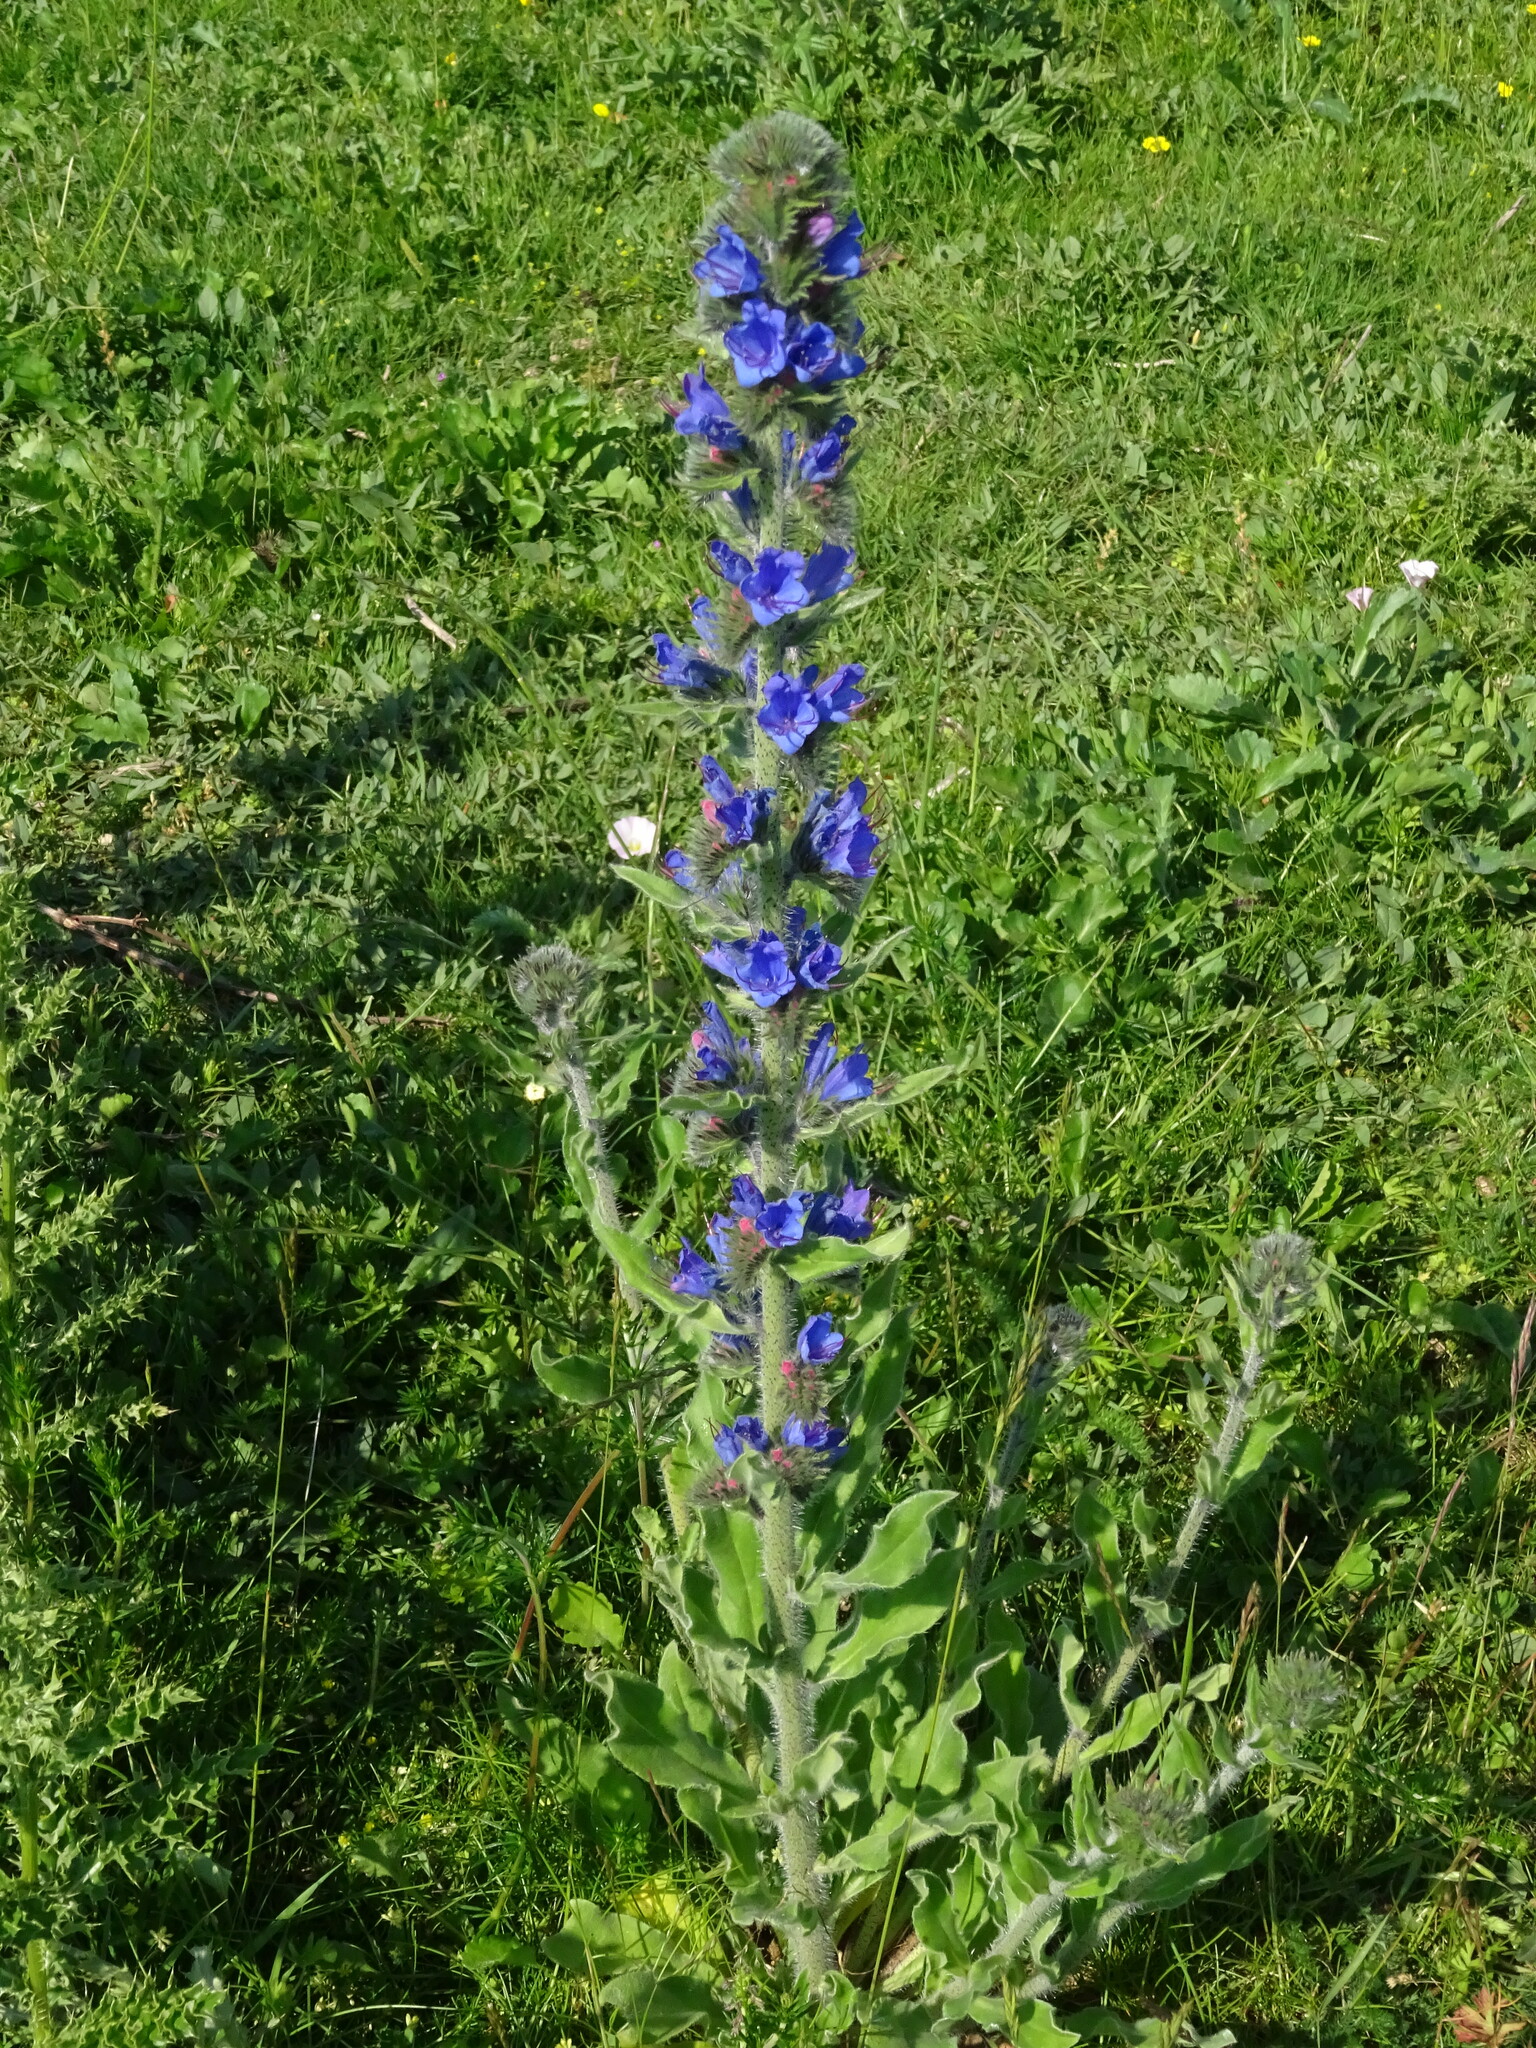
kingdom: Plantae
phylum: Tracheophyta
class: Magnoliopsida
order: Boraginales
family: Boraginaceae
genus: Echium
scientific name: Echium vulgare
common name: Common viper's bugloss
